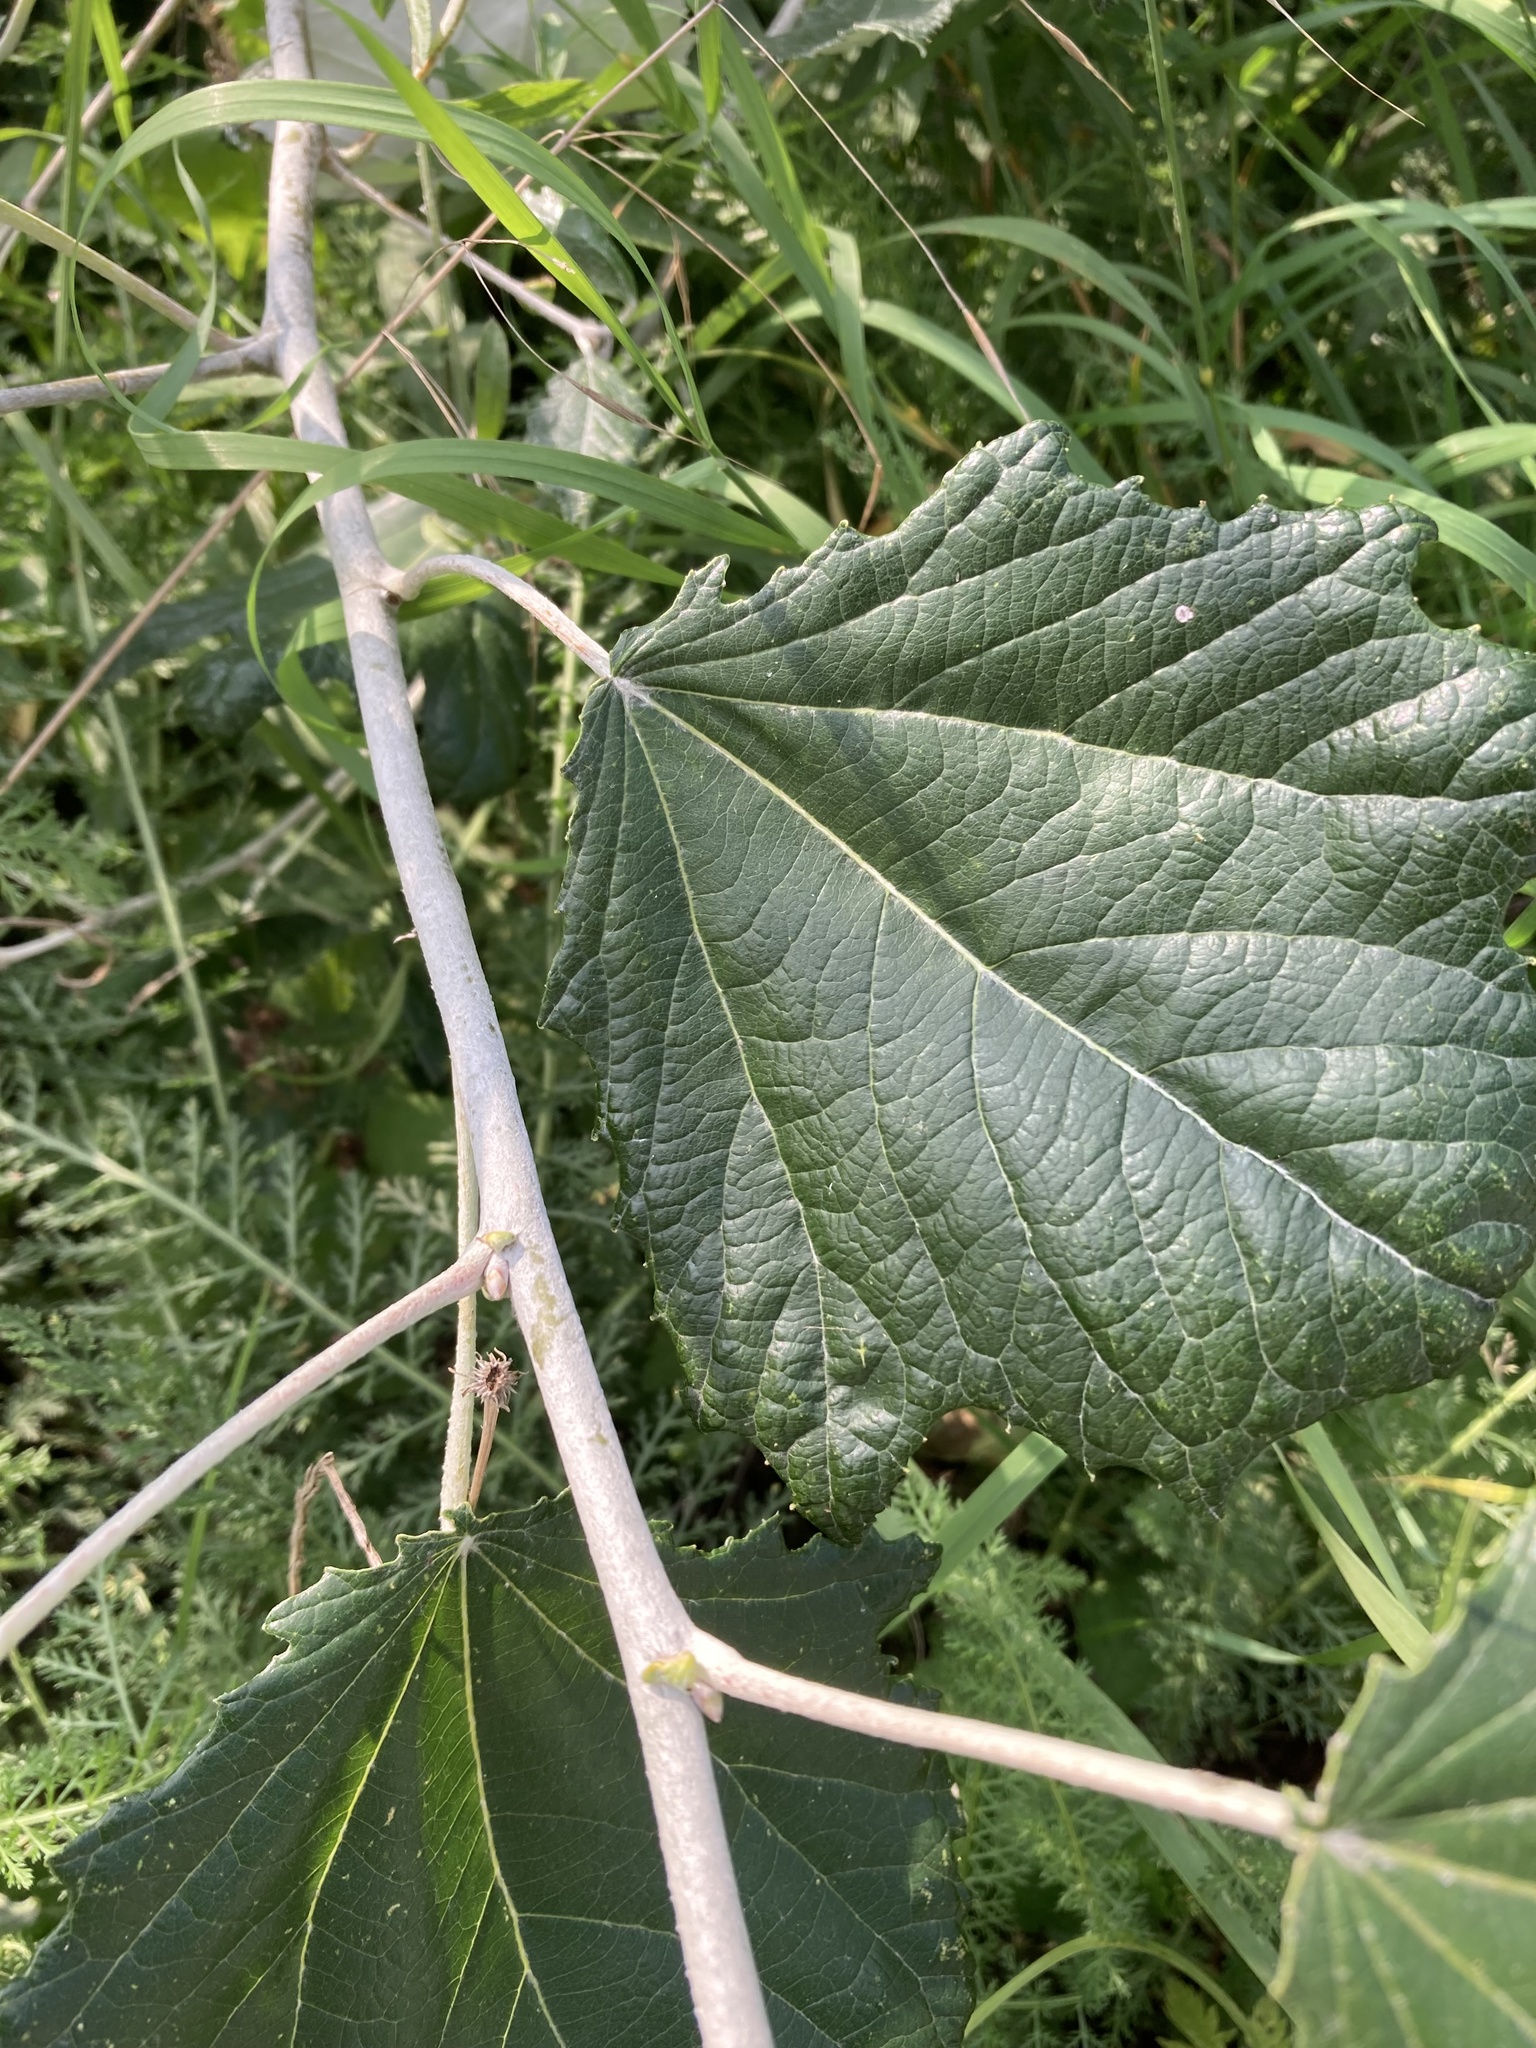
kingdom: Plantae
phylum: Tracheophyta
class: Magnoliopsida
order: Malpighiales
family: Salicaceae
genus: Populus
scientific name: Populus alba
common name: White poplar
